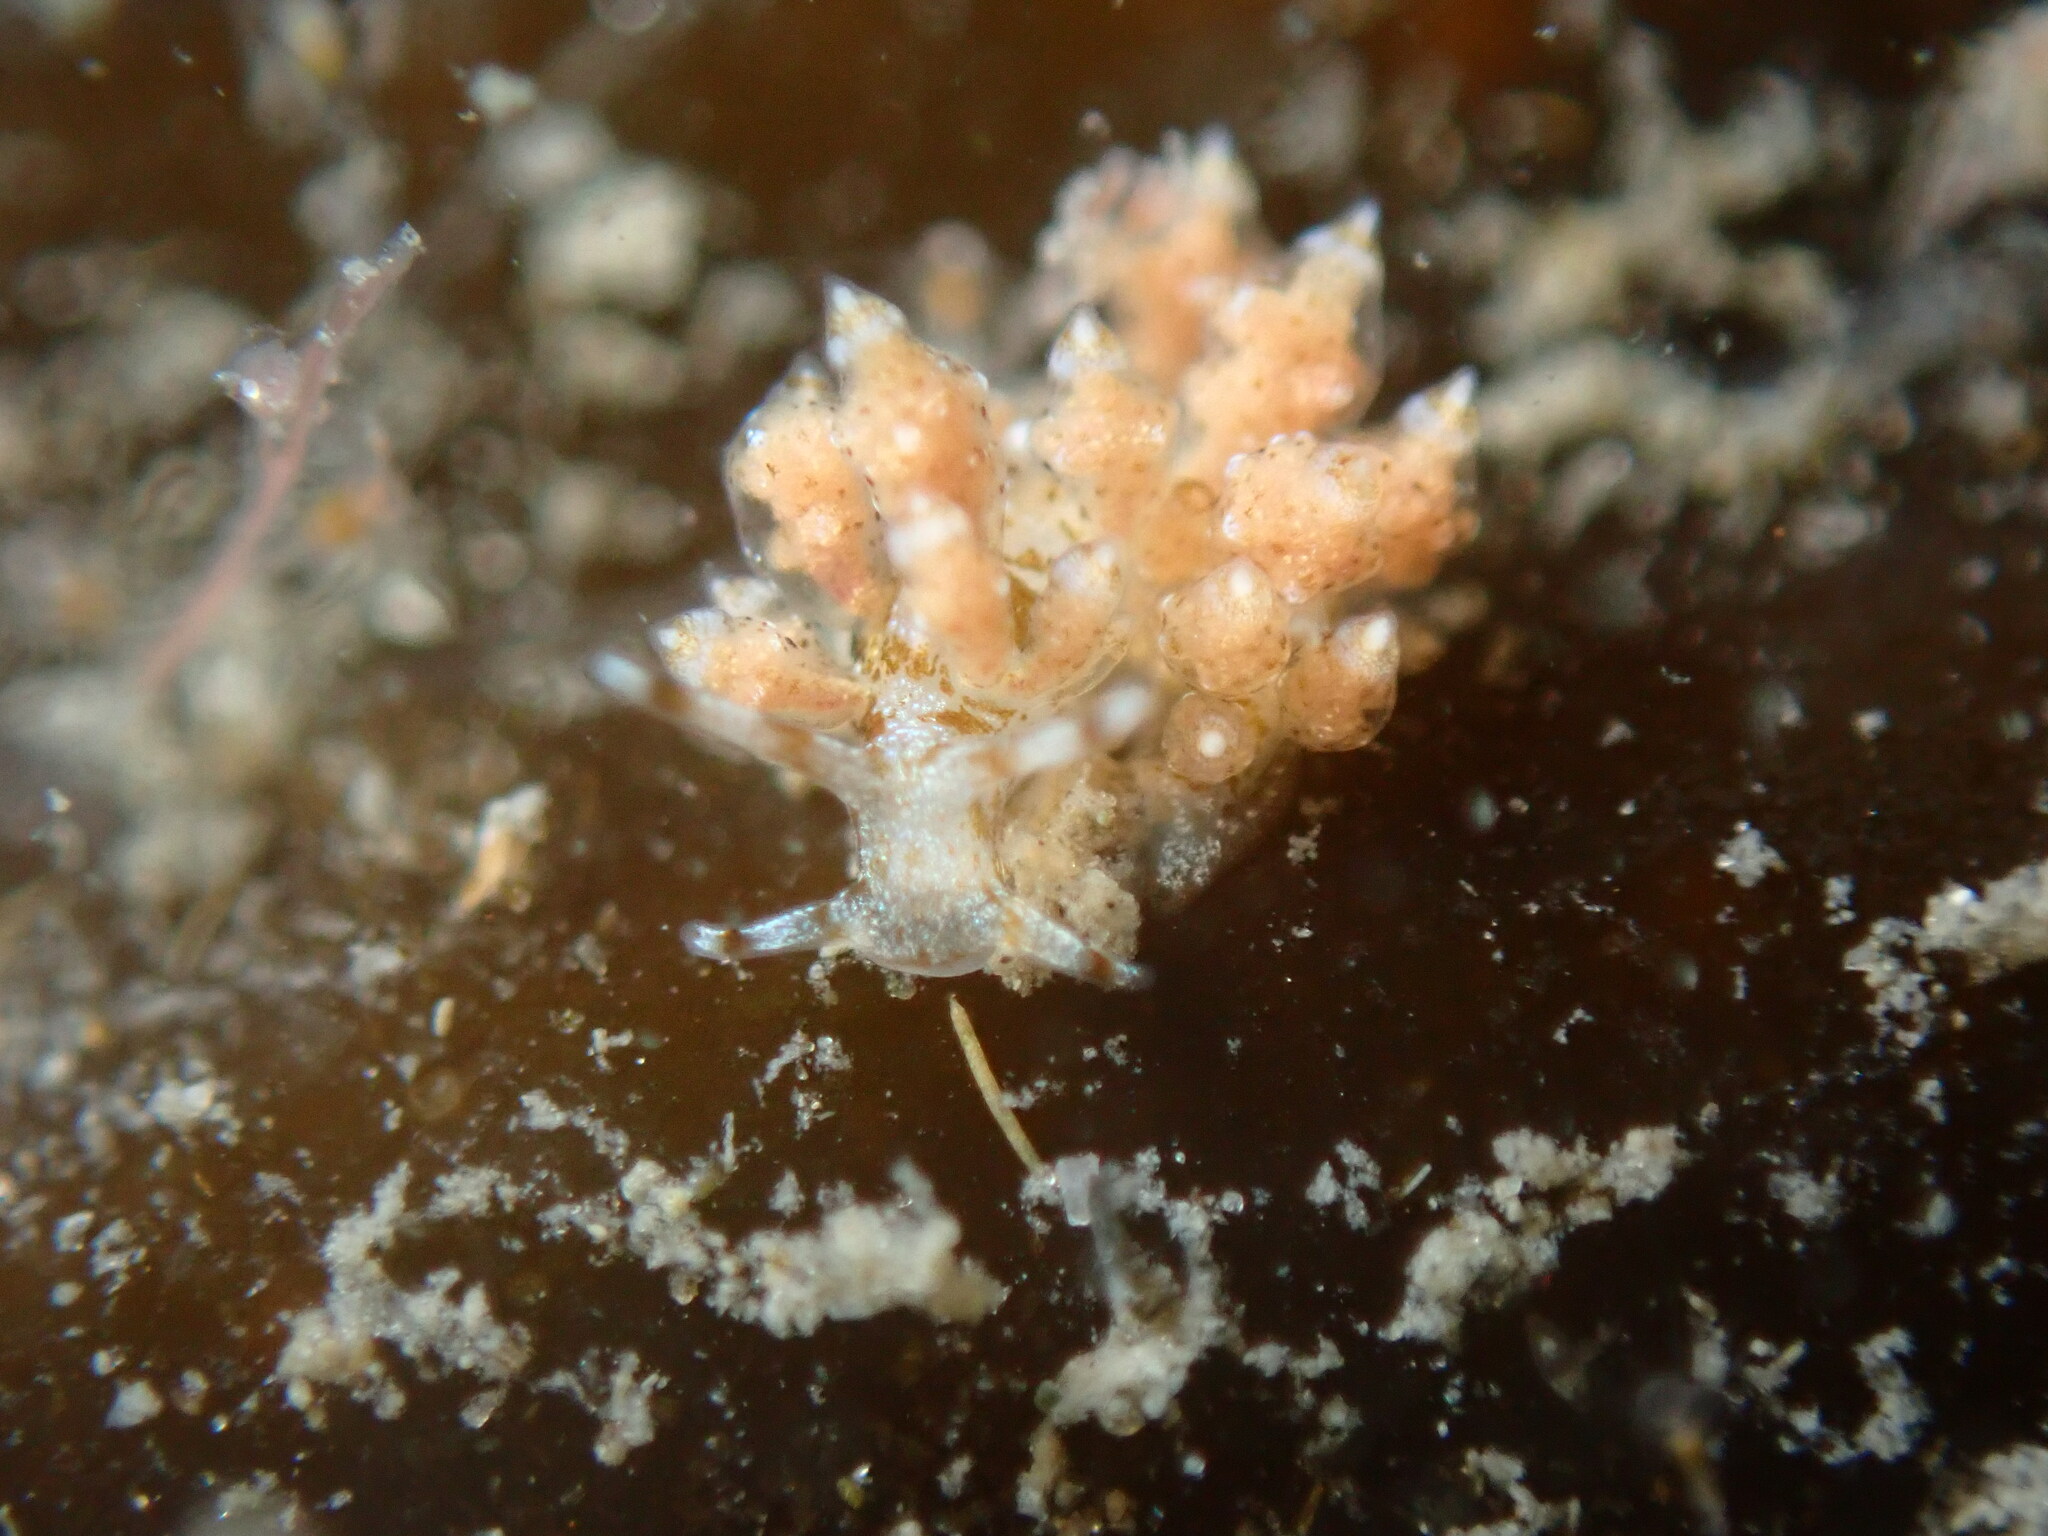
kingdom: Animalia
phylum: Mollusca
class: Gastropoda
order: Nudibranchia
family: Eubranchidae
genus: Eubranchus
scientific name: Eubranchus rustyus
